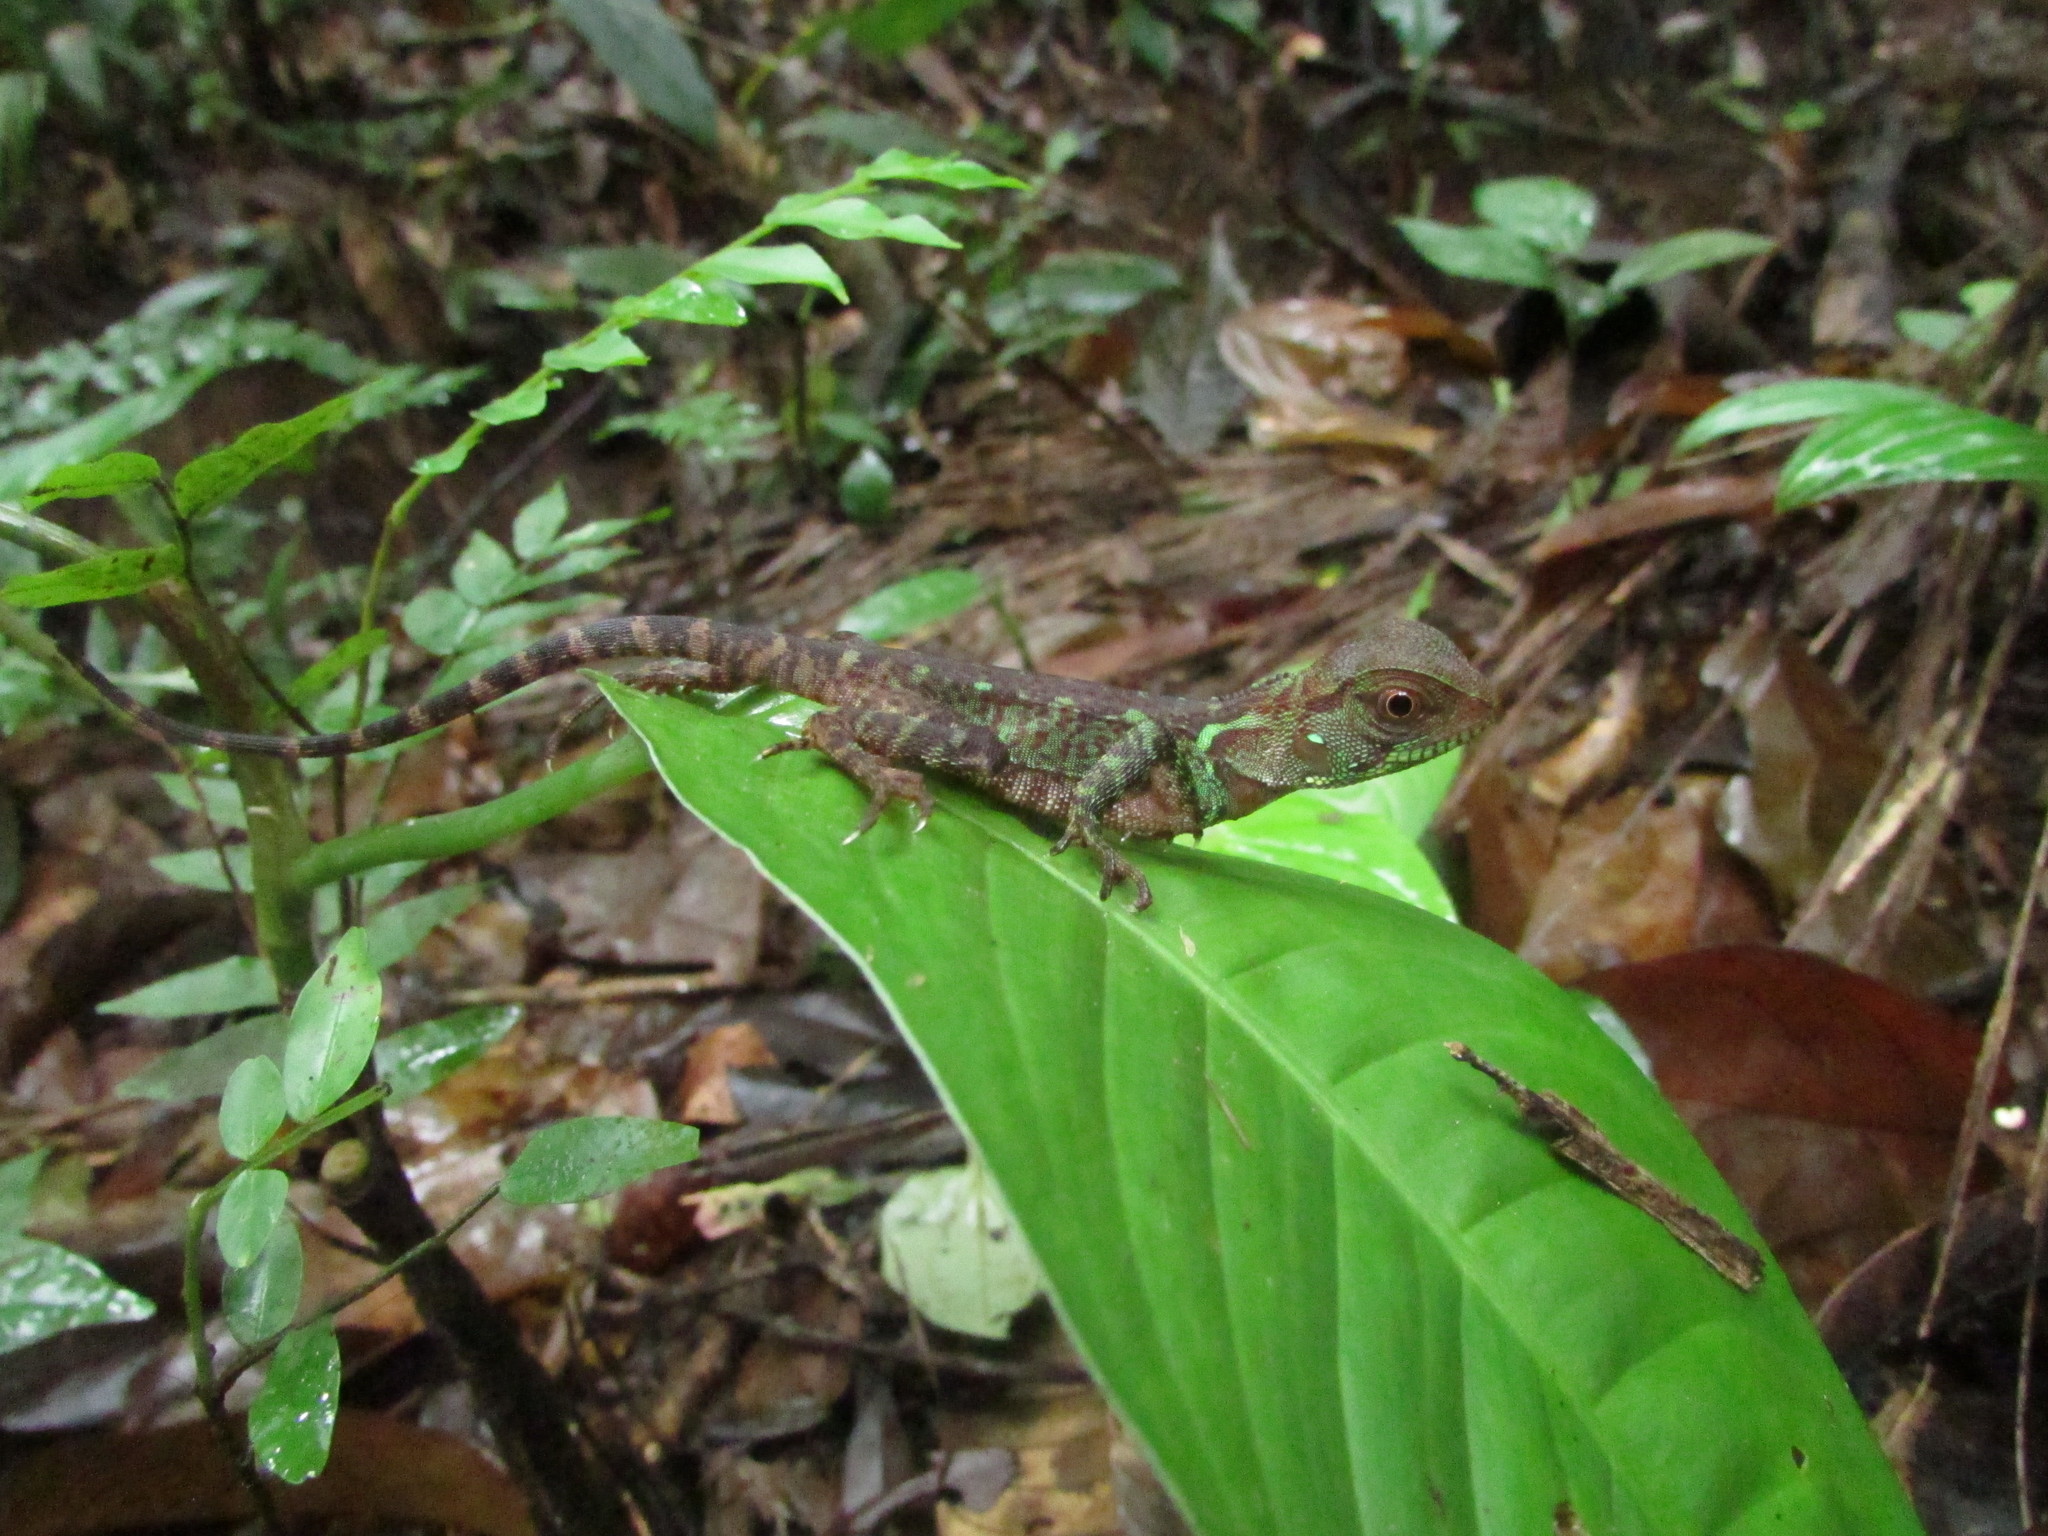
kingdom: Animalia
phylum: Chordata
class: Squamata
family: Hoplocercidae
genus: Enyalioides
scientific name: Enyalioides laticeps
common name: Guichenot's dwarf iguana
